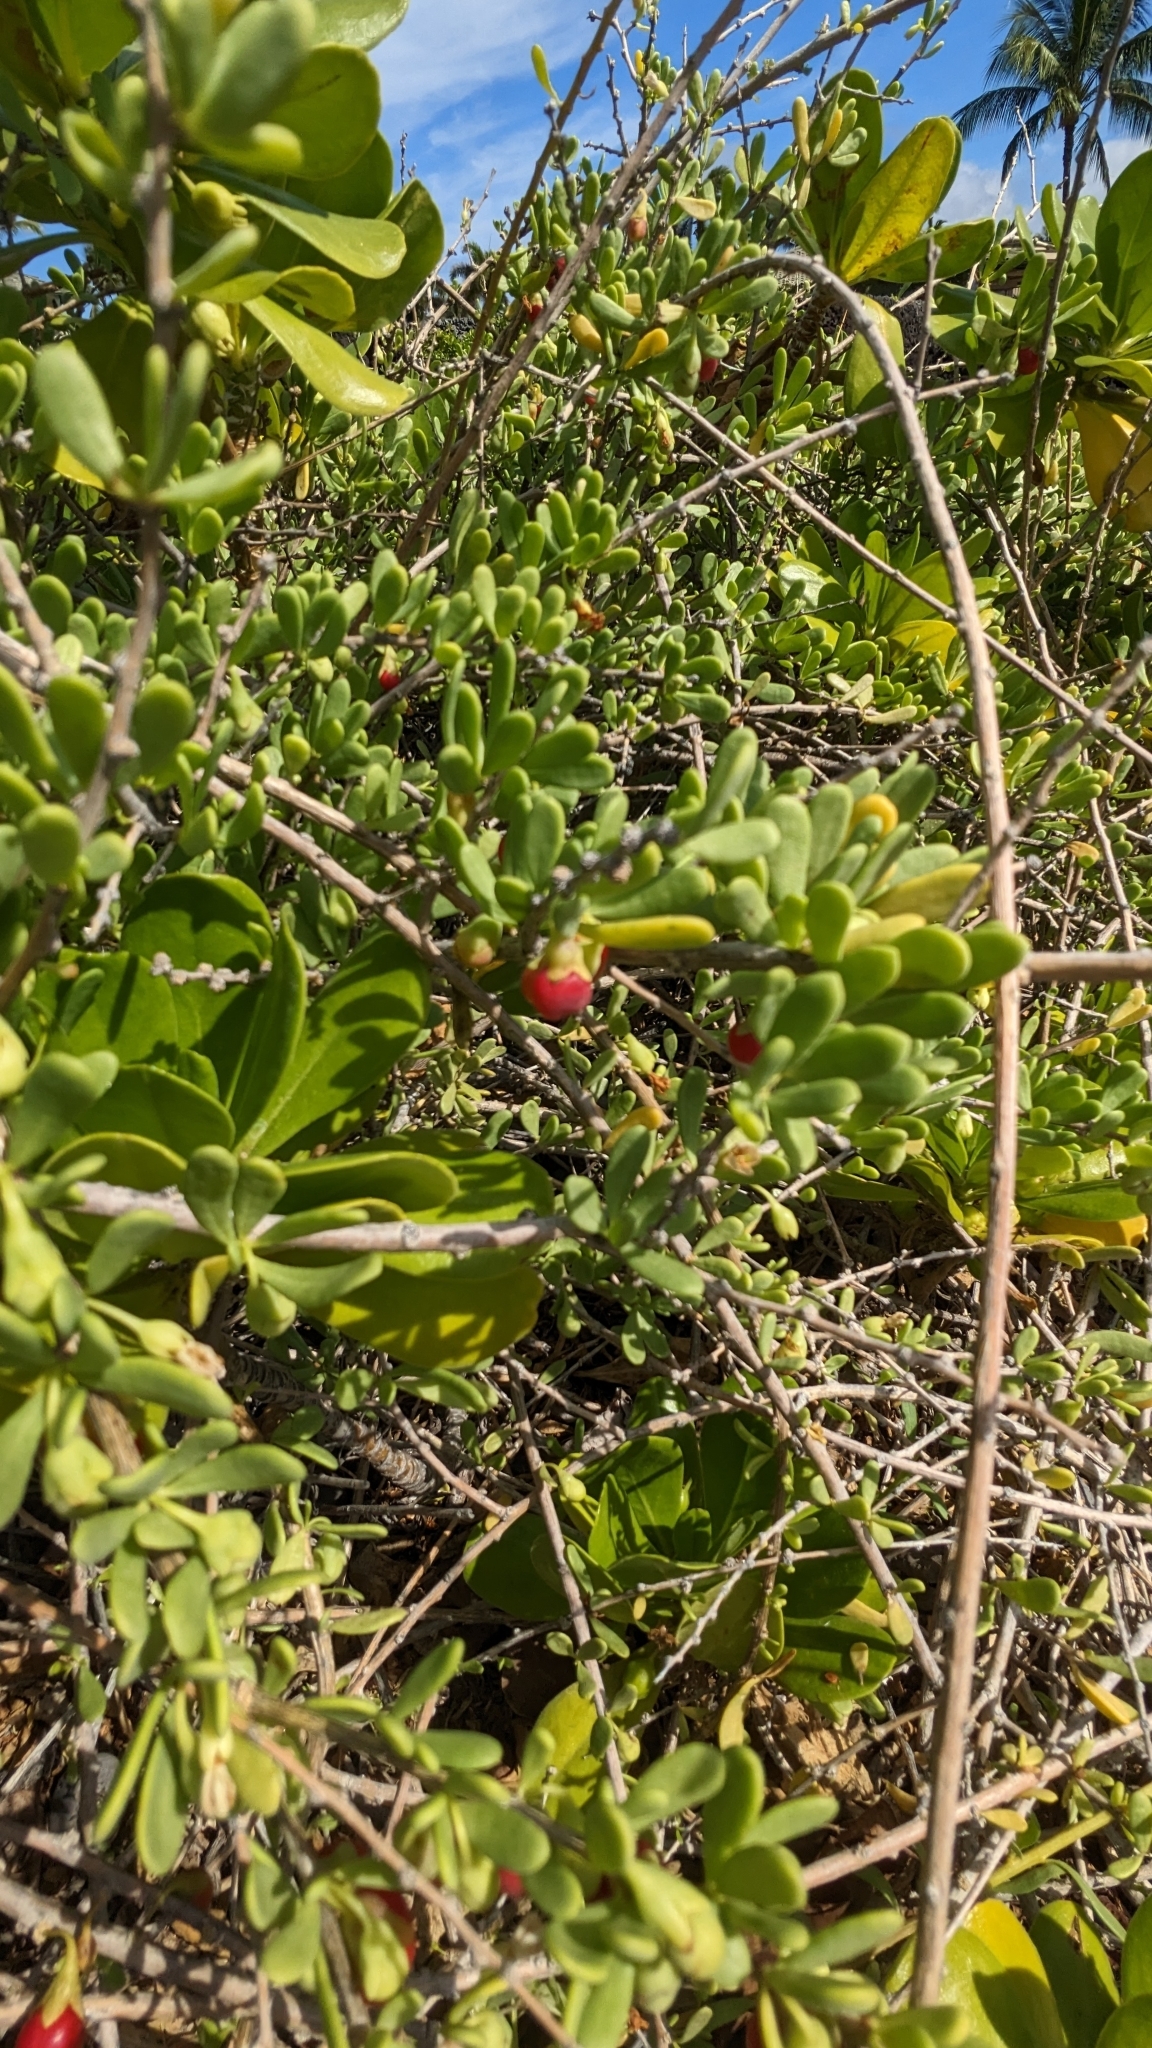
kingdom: Plantae
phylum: Tracheophyta
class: Magnoliopsida
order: Solanales
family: Solanaceae
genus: Lycium
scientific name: Lycium sandwicense
